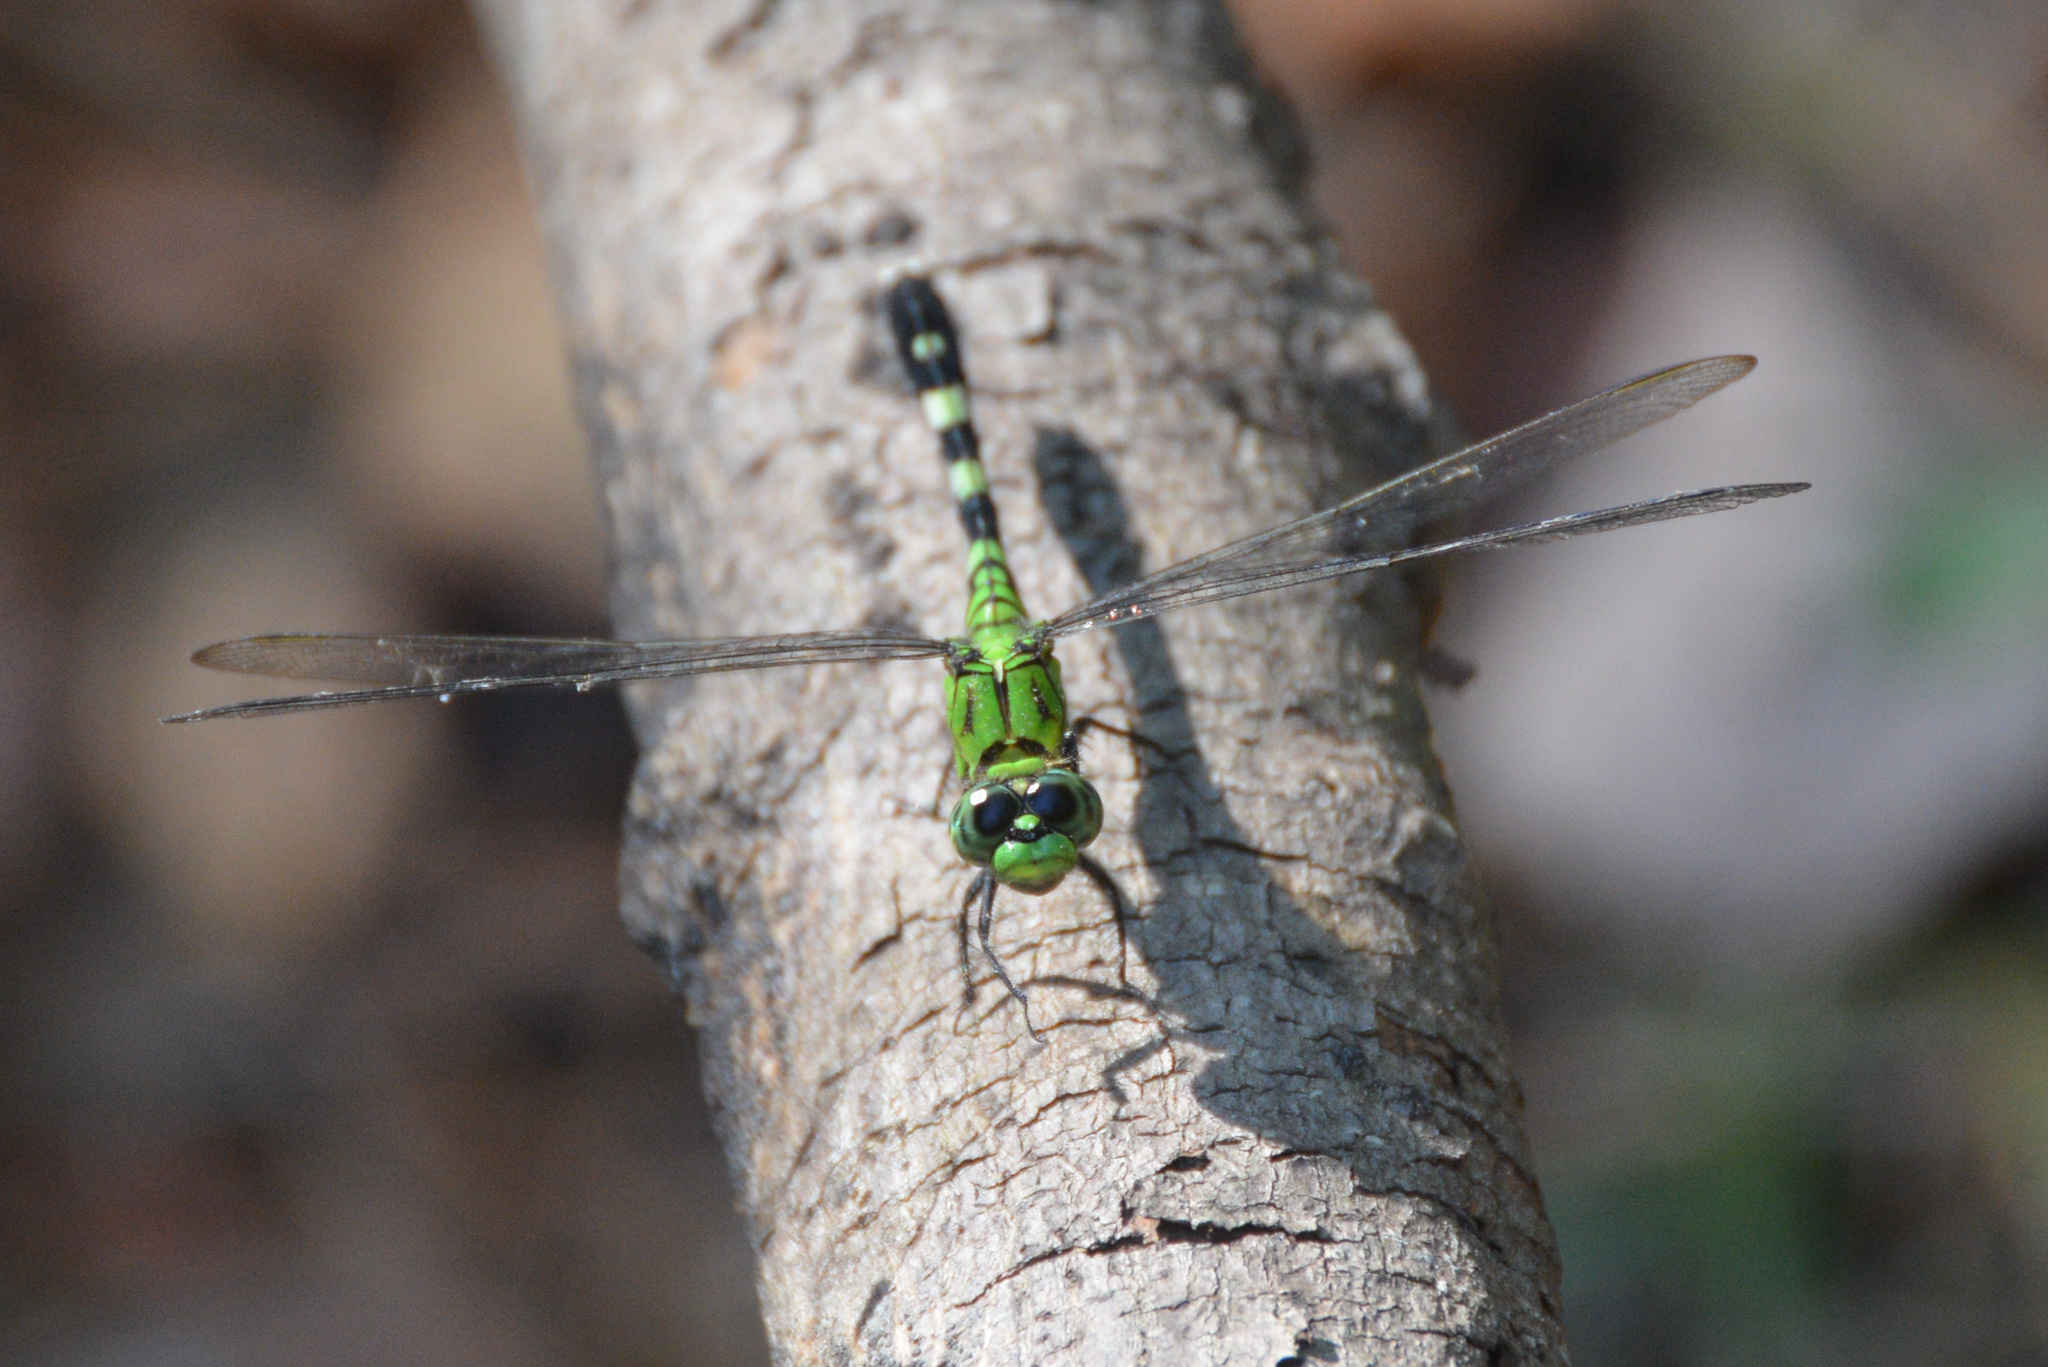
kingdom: Animalia
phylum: Arthropoda
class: Insecta
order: Odonata
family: Libellulidae
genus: Erythemis
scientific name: Erythemis simplicicollis
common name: Eastern pondhawk
